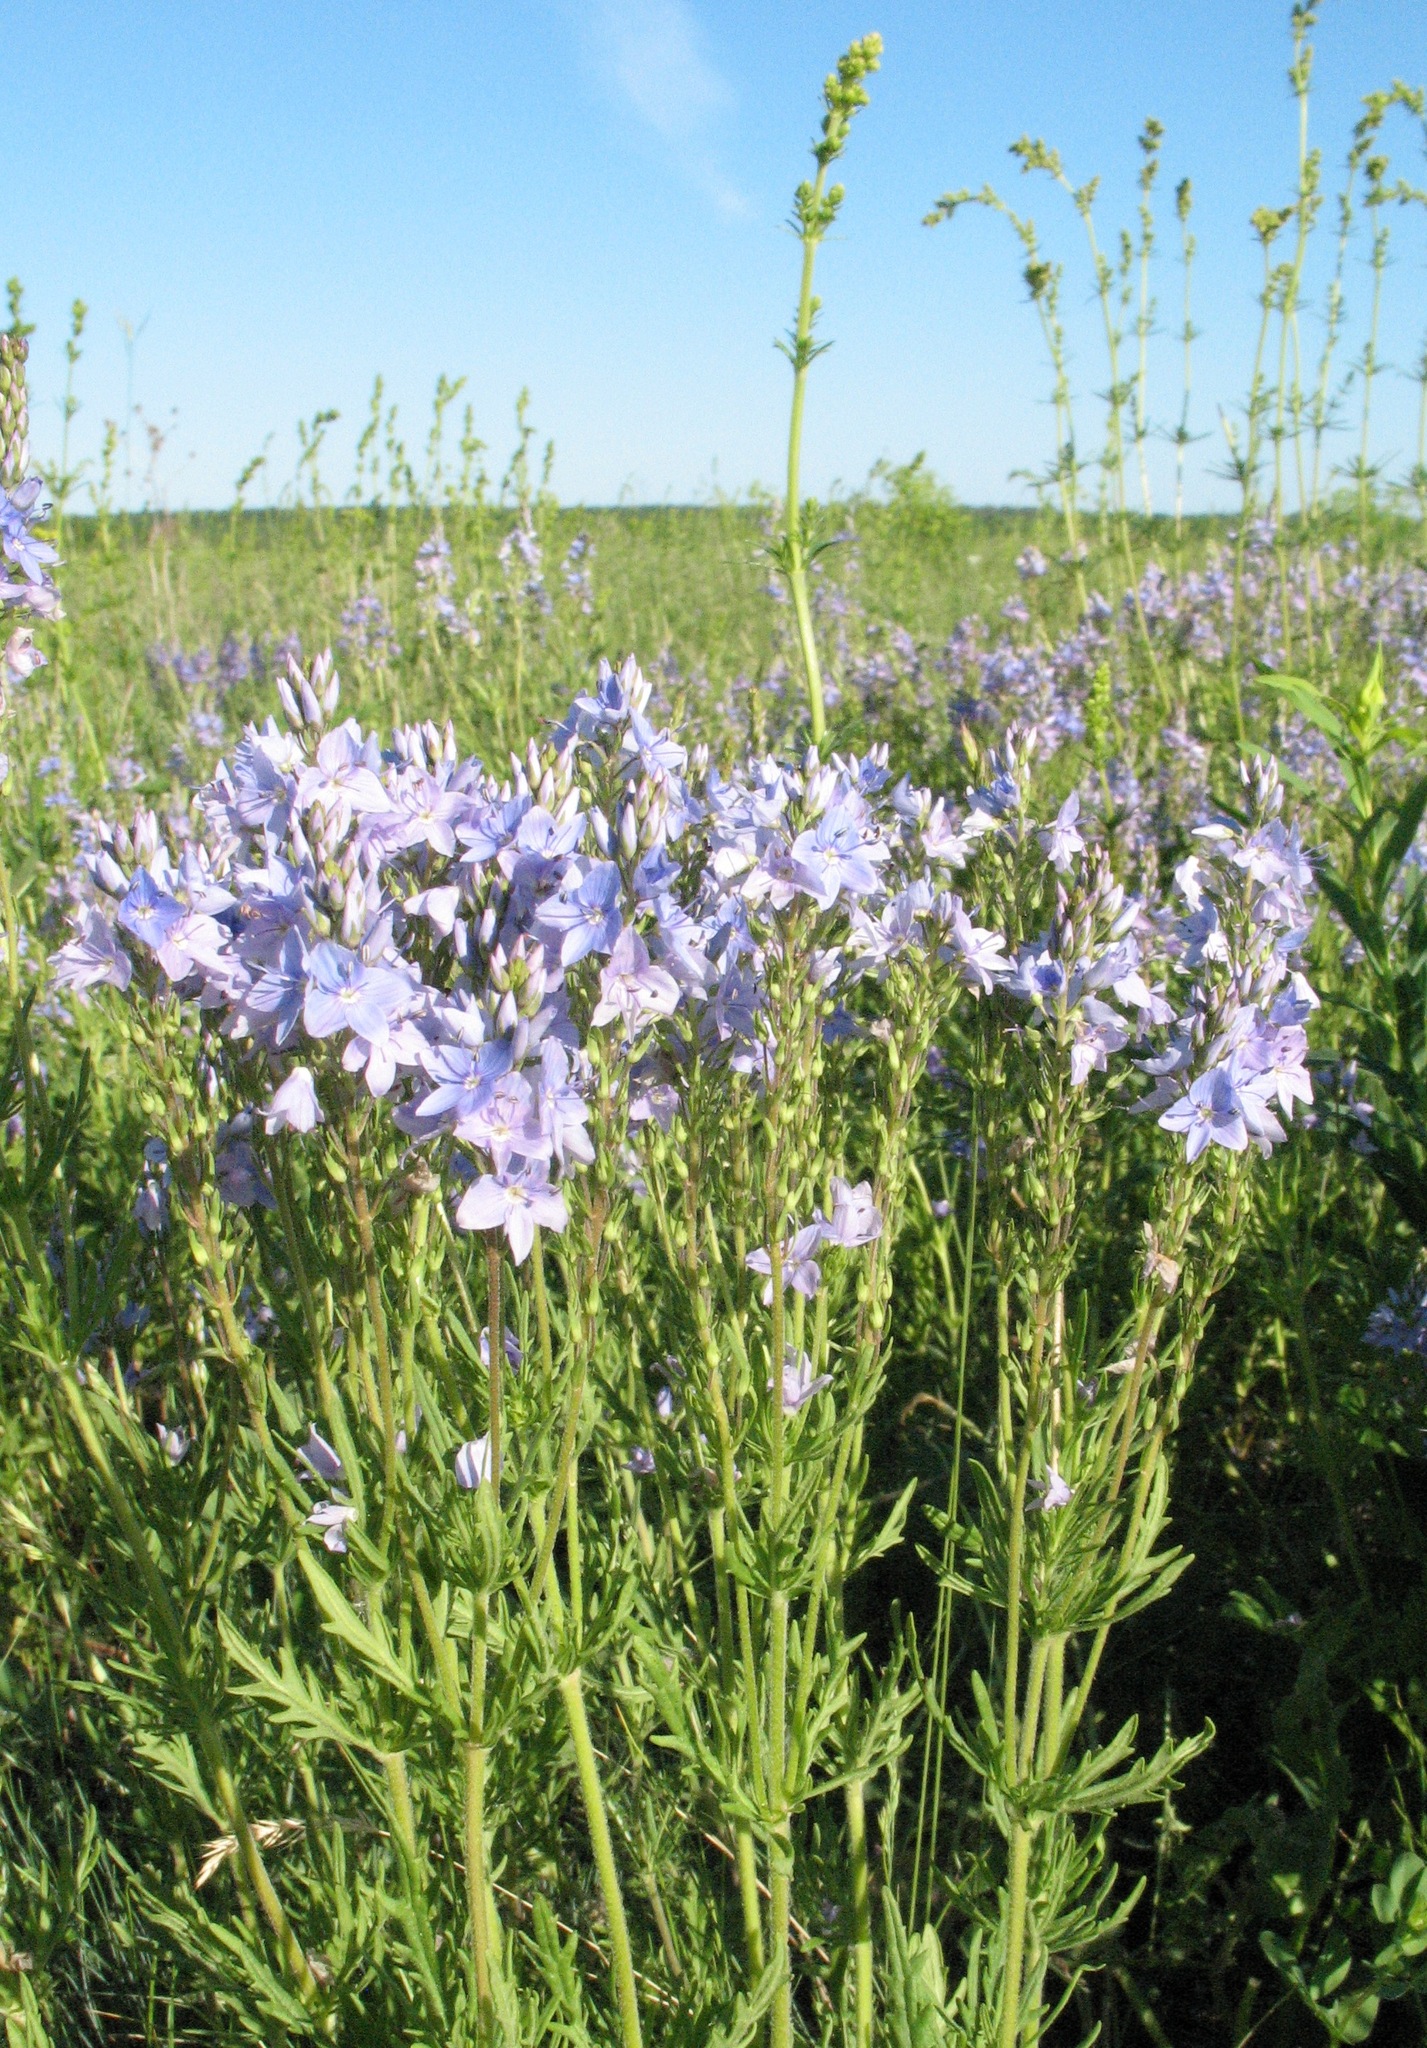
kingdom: Plantae
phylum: Tracheophyta
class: Magnoliopsida
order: Lamiales
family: Plantaginaceae
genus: Veronica
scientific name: Veronica austriaca
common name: Large speedwell
